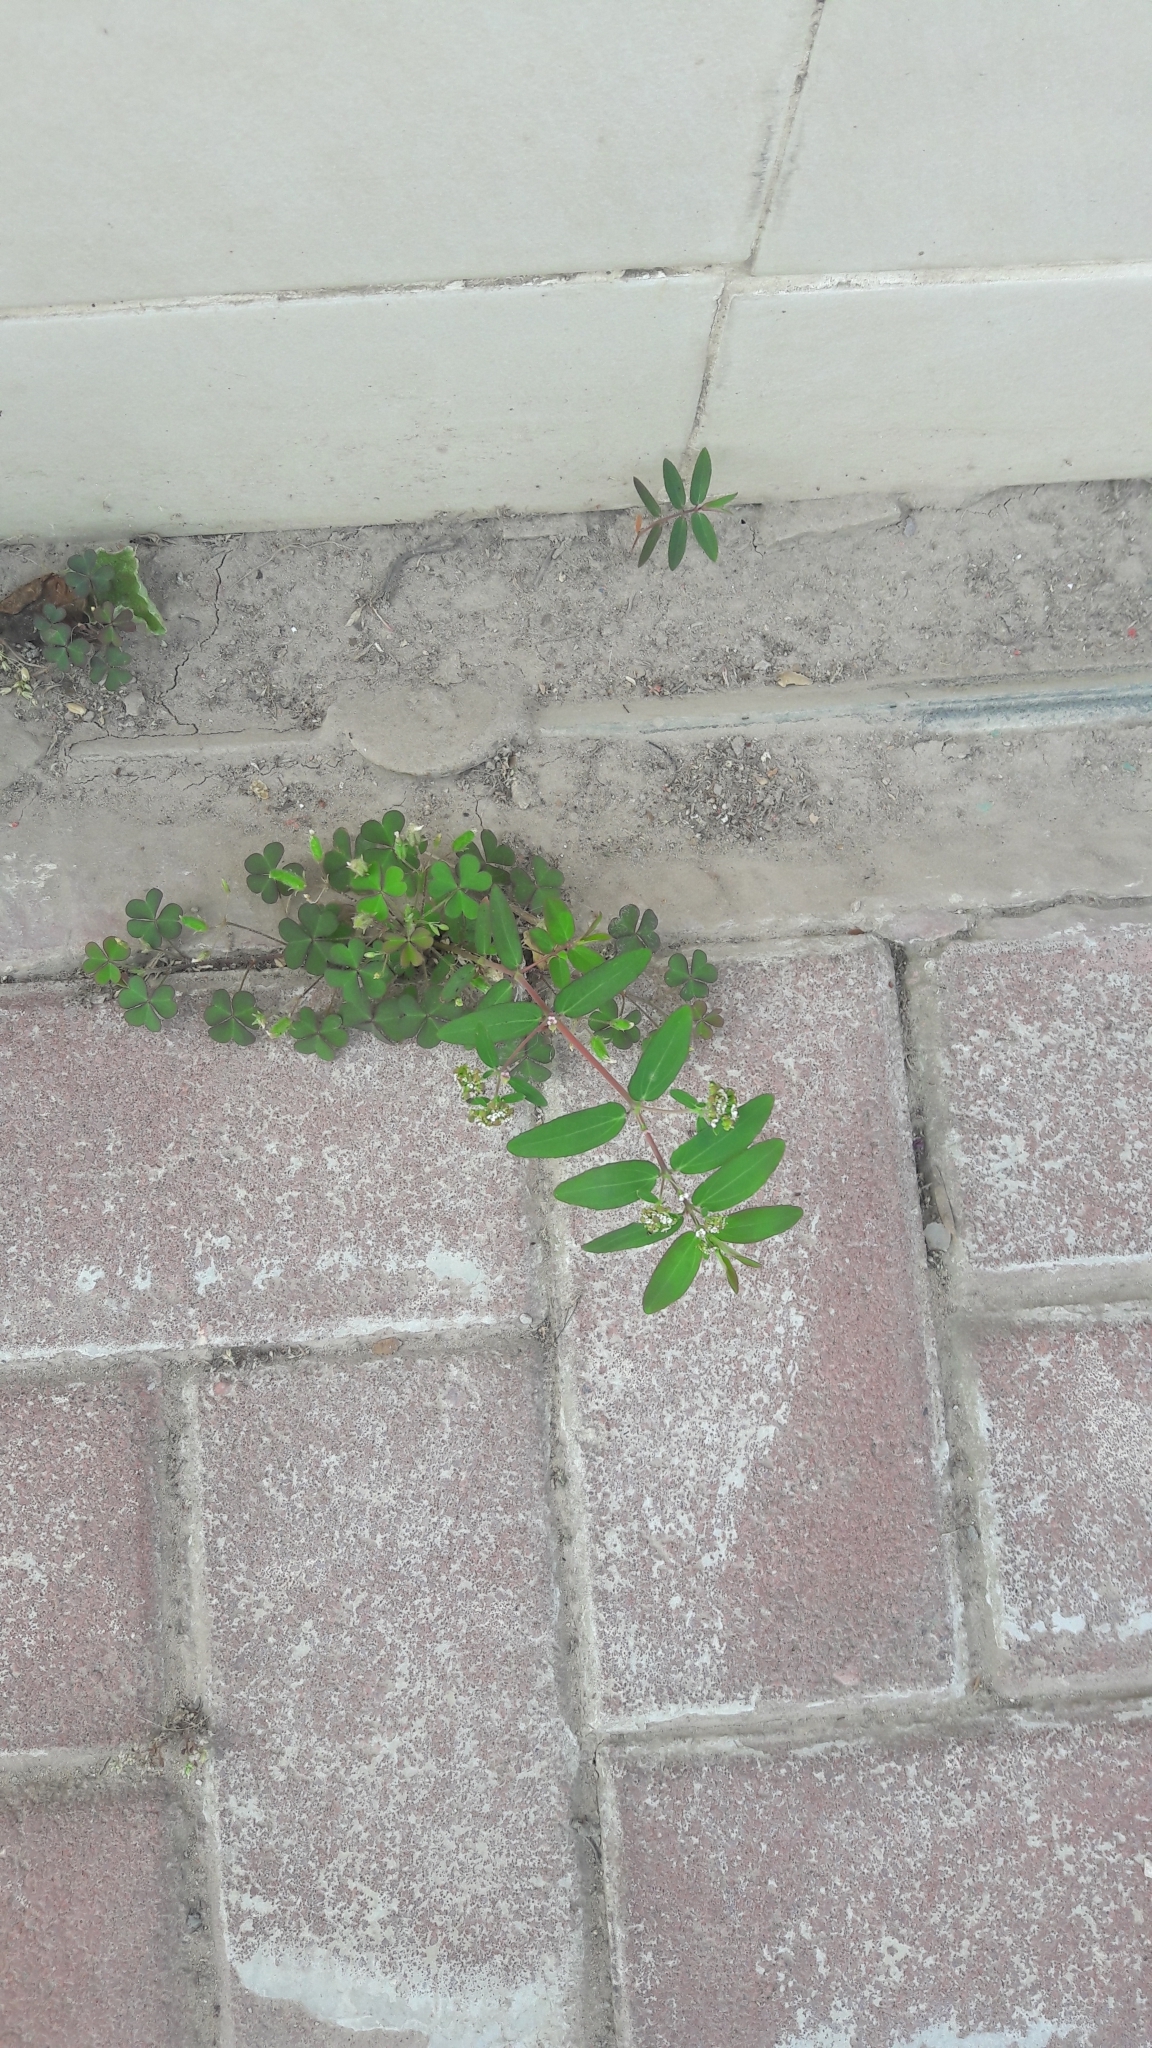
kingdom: Plantae
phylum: Tracheophyta
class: Magnoliopsida
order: Malpighiales
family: Euphorbiaceae
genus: Euphorbia
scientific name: Euphorbia hypericifolia
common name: Graceful sandmat
